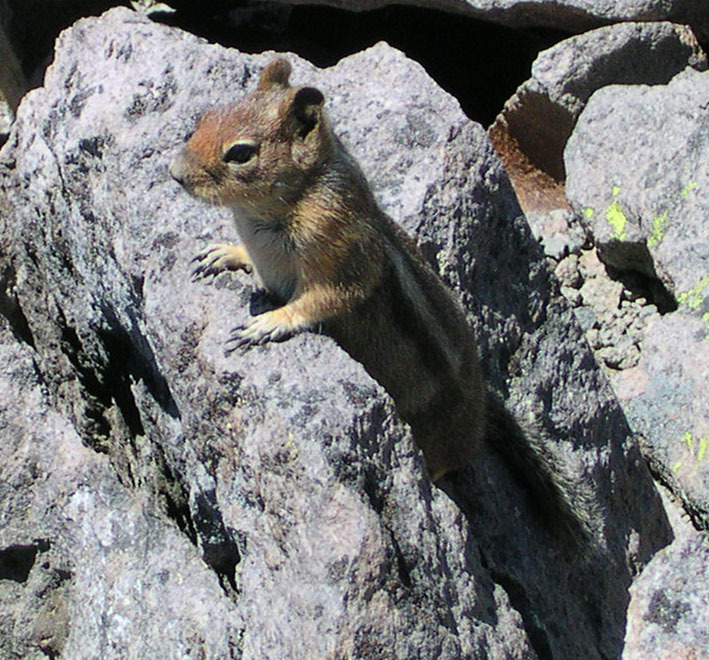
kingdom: Animalia
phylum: Chordata
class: Mammalia
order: Rodentia
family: Sciuridae
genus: Callospermophilus
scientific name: Callospermophilus saturatus
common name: Cascade golden-mantled ground squirrel
